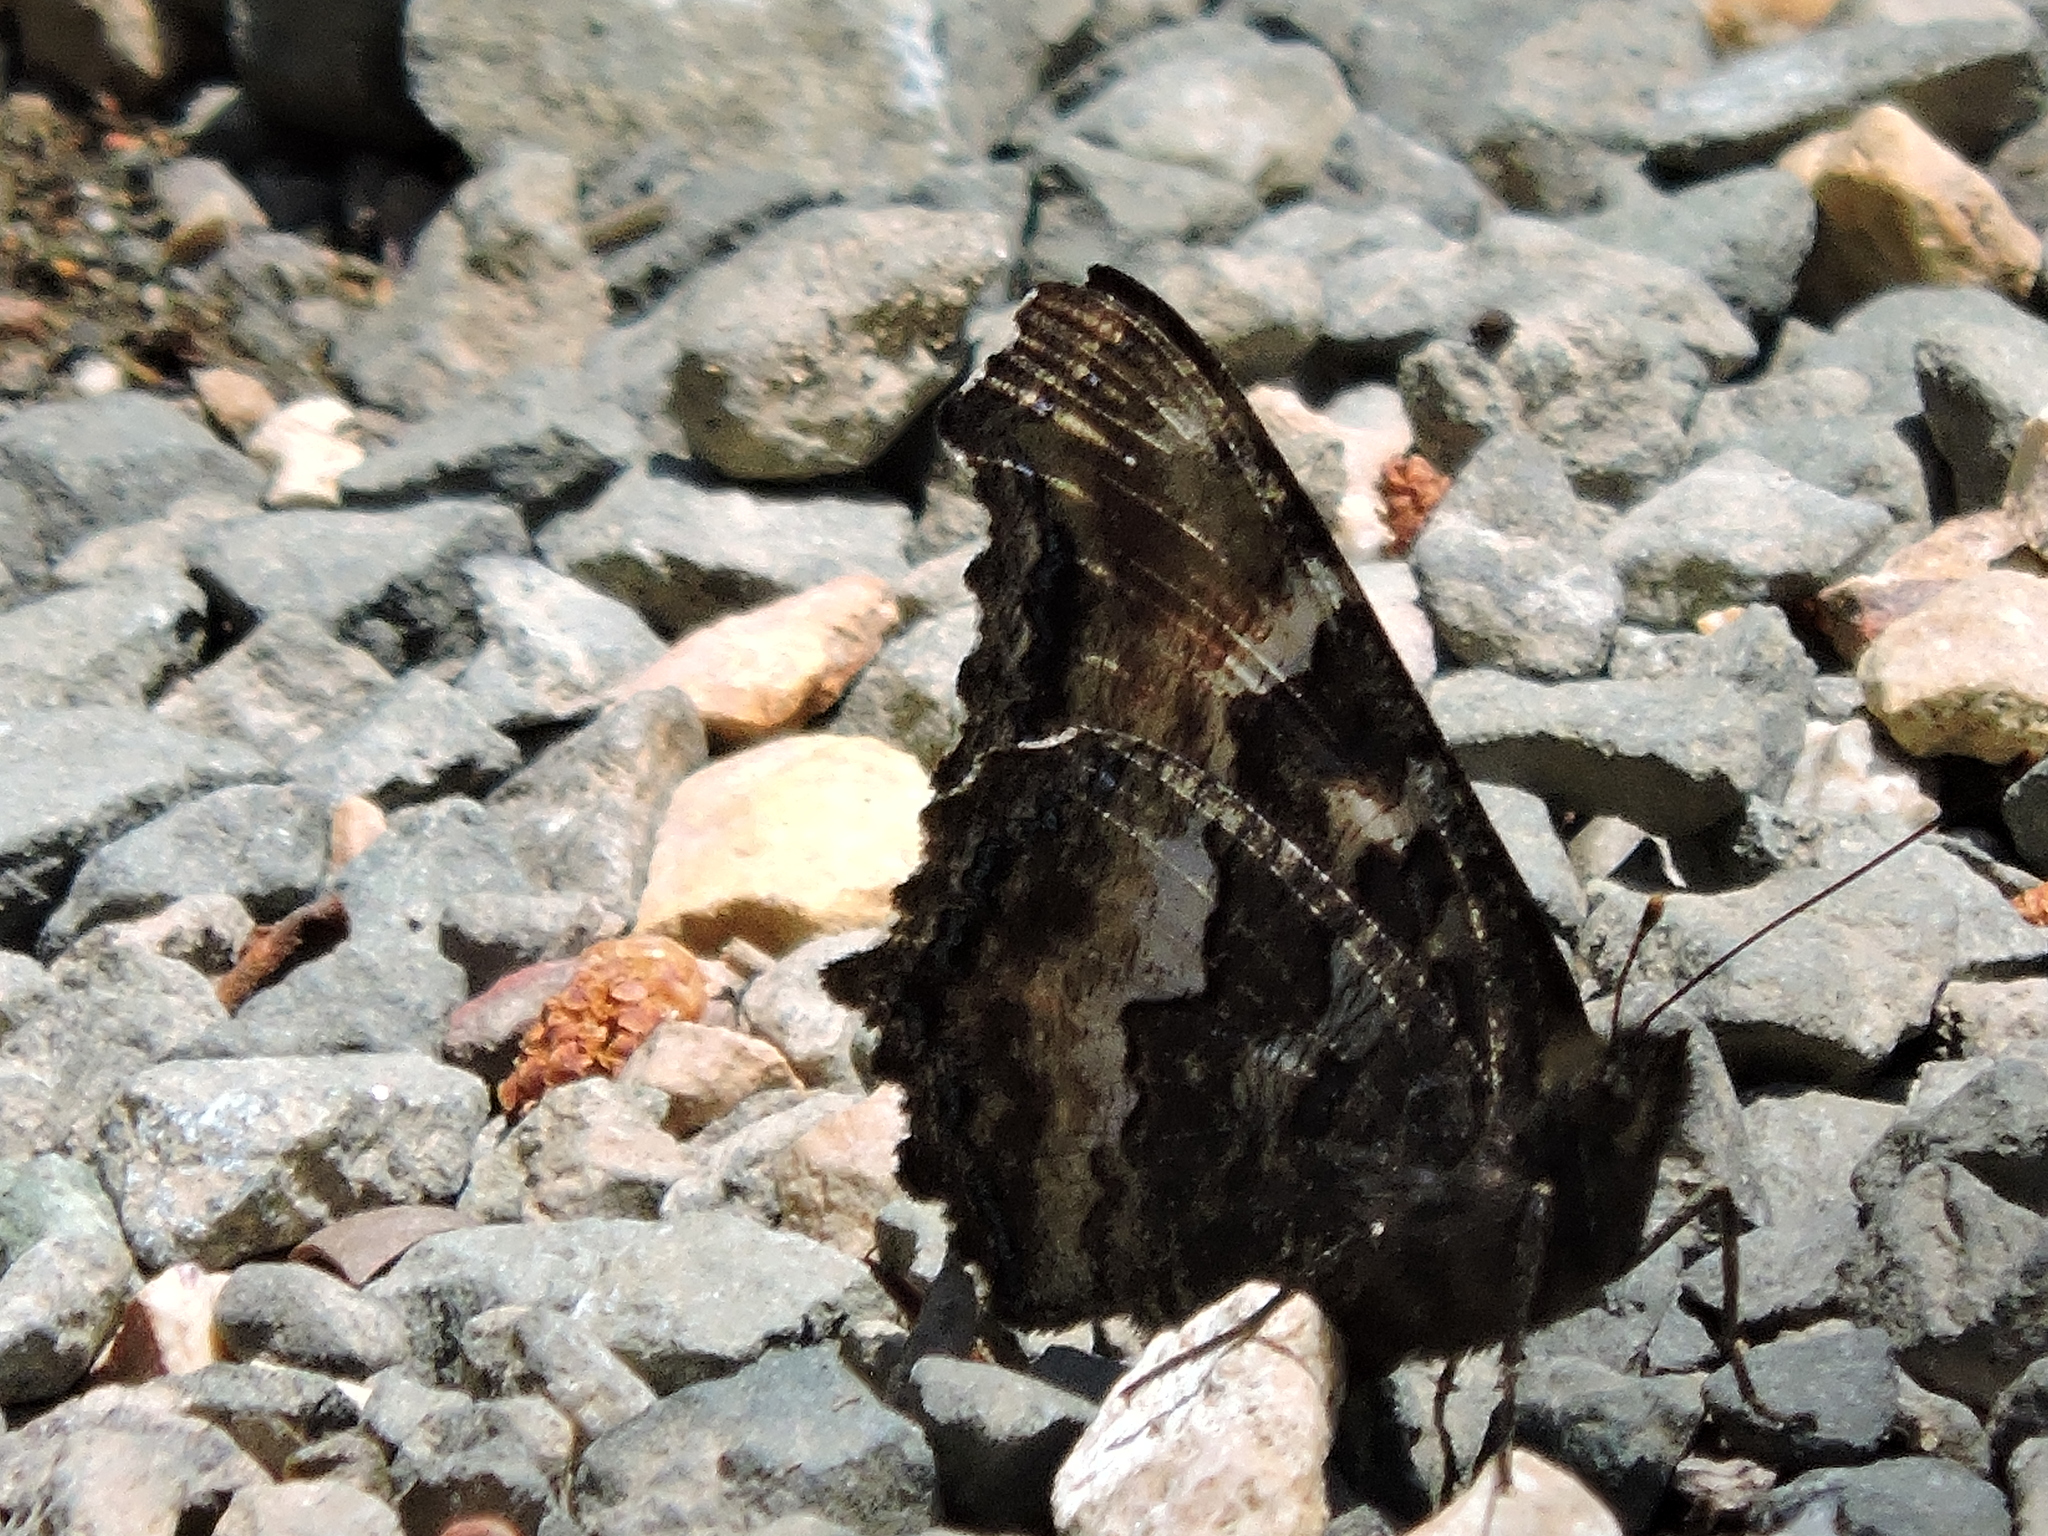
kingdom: Animalia
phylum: Arthropoda
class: Insecta
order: Lepidoptera
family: Nymphalidae
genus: Nymphalis
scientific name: Nymphalis californica
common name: California tortoiseshell
